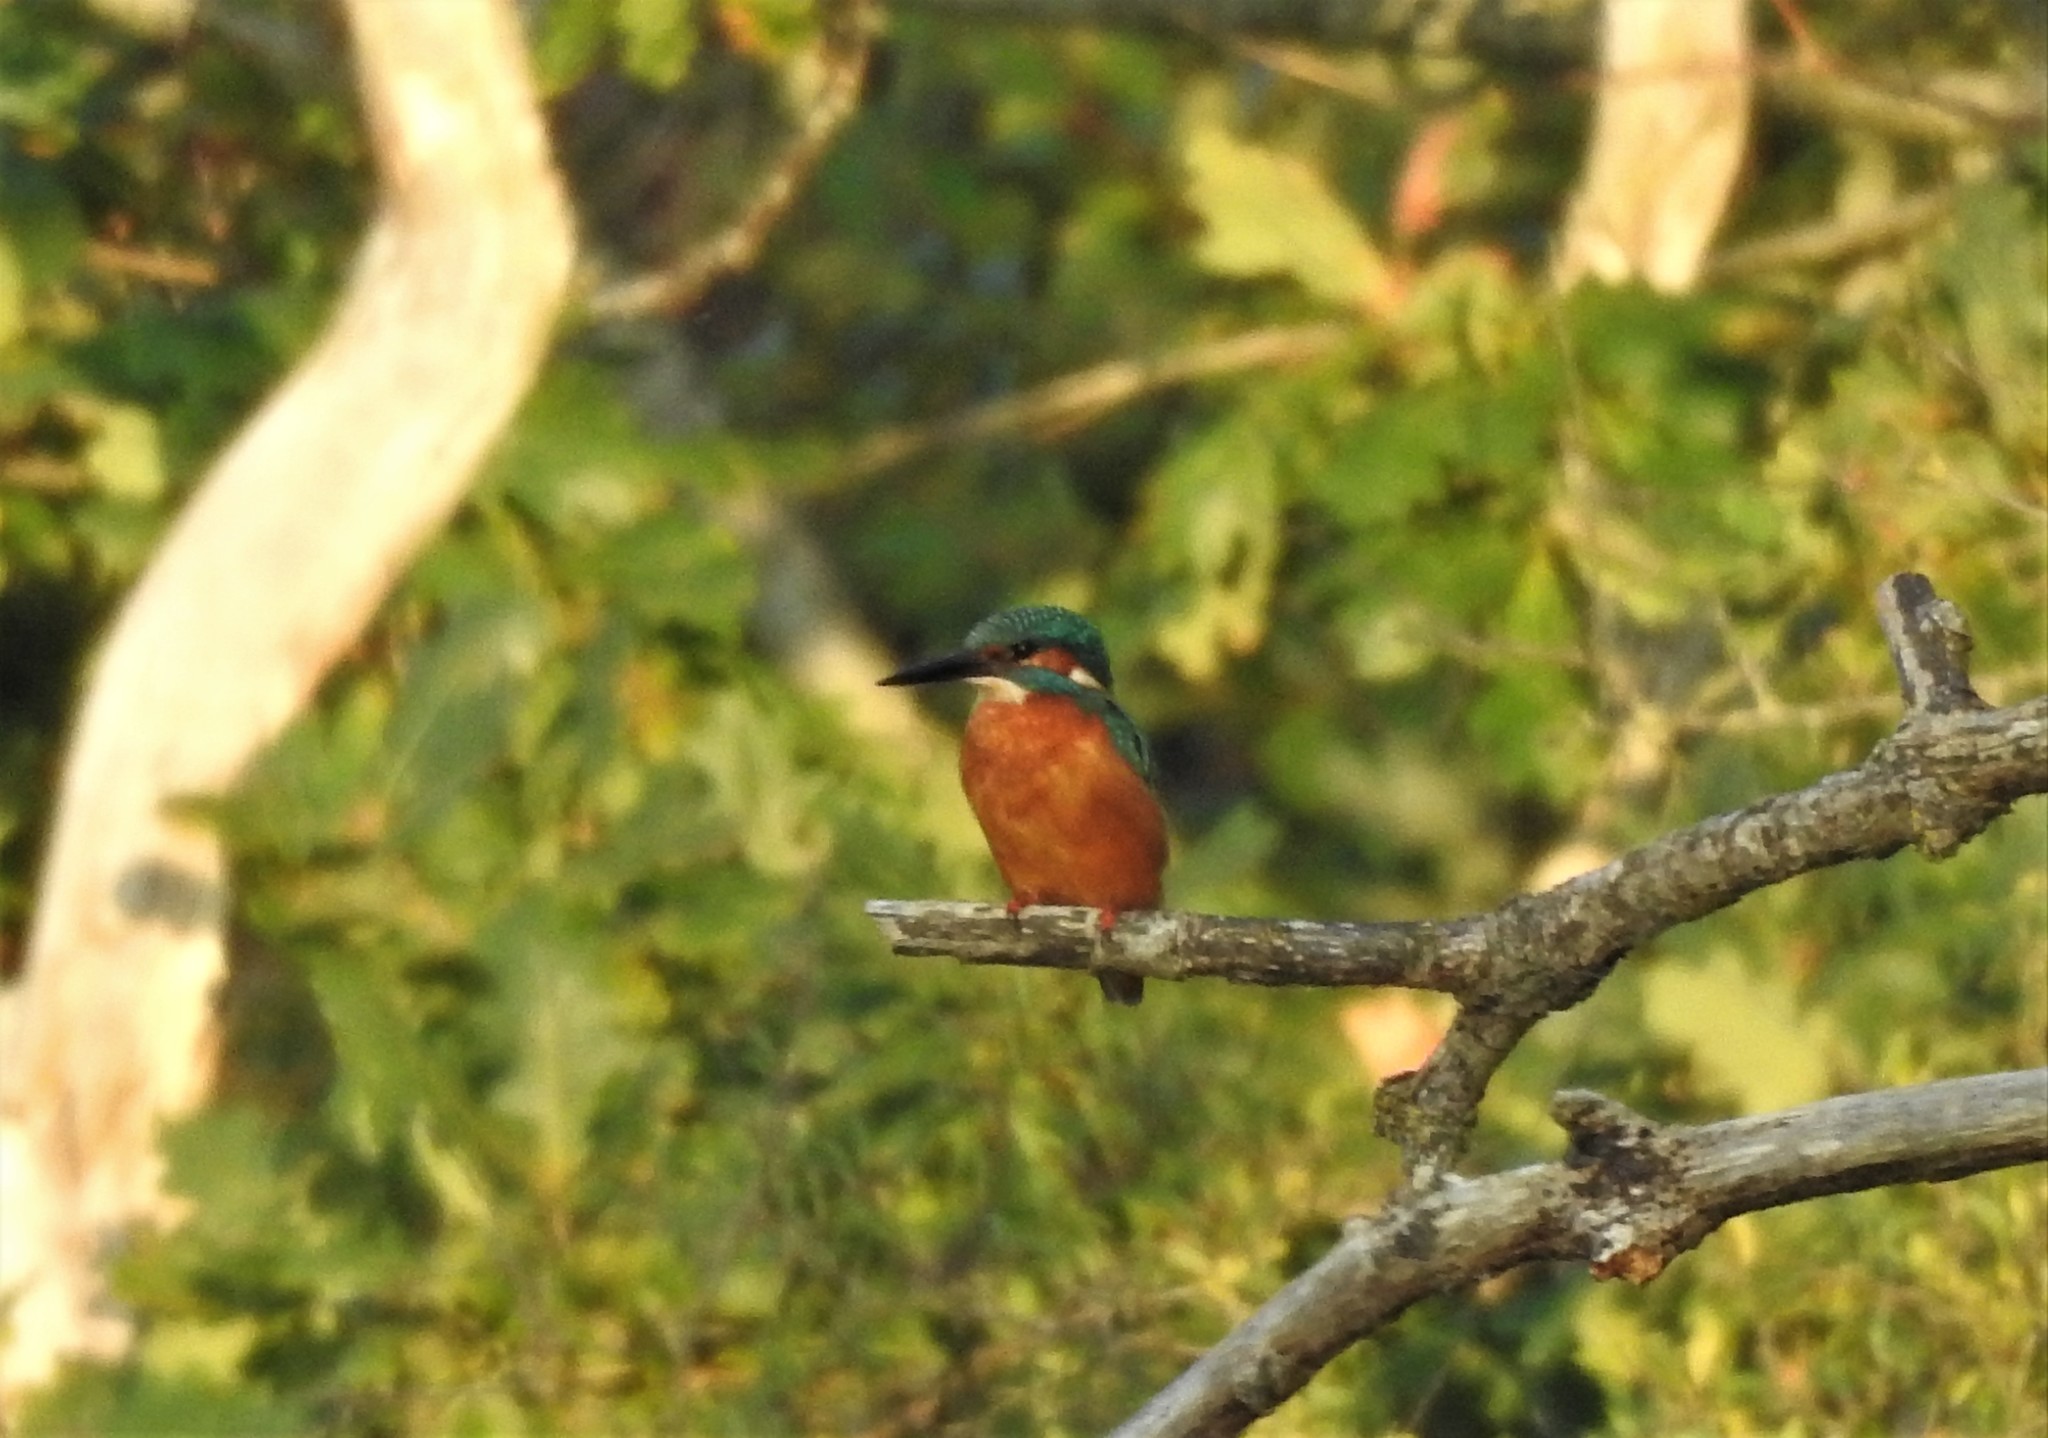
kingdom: Animalia
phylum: Chordata
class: Aves
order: Coraciiformes
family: Alcedinidae
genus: Alcedo
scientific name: Alcedo atthis
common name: Common kingfisher
